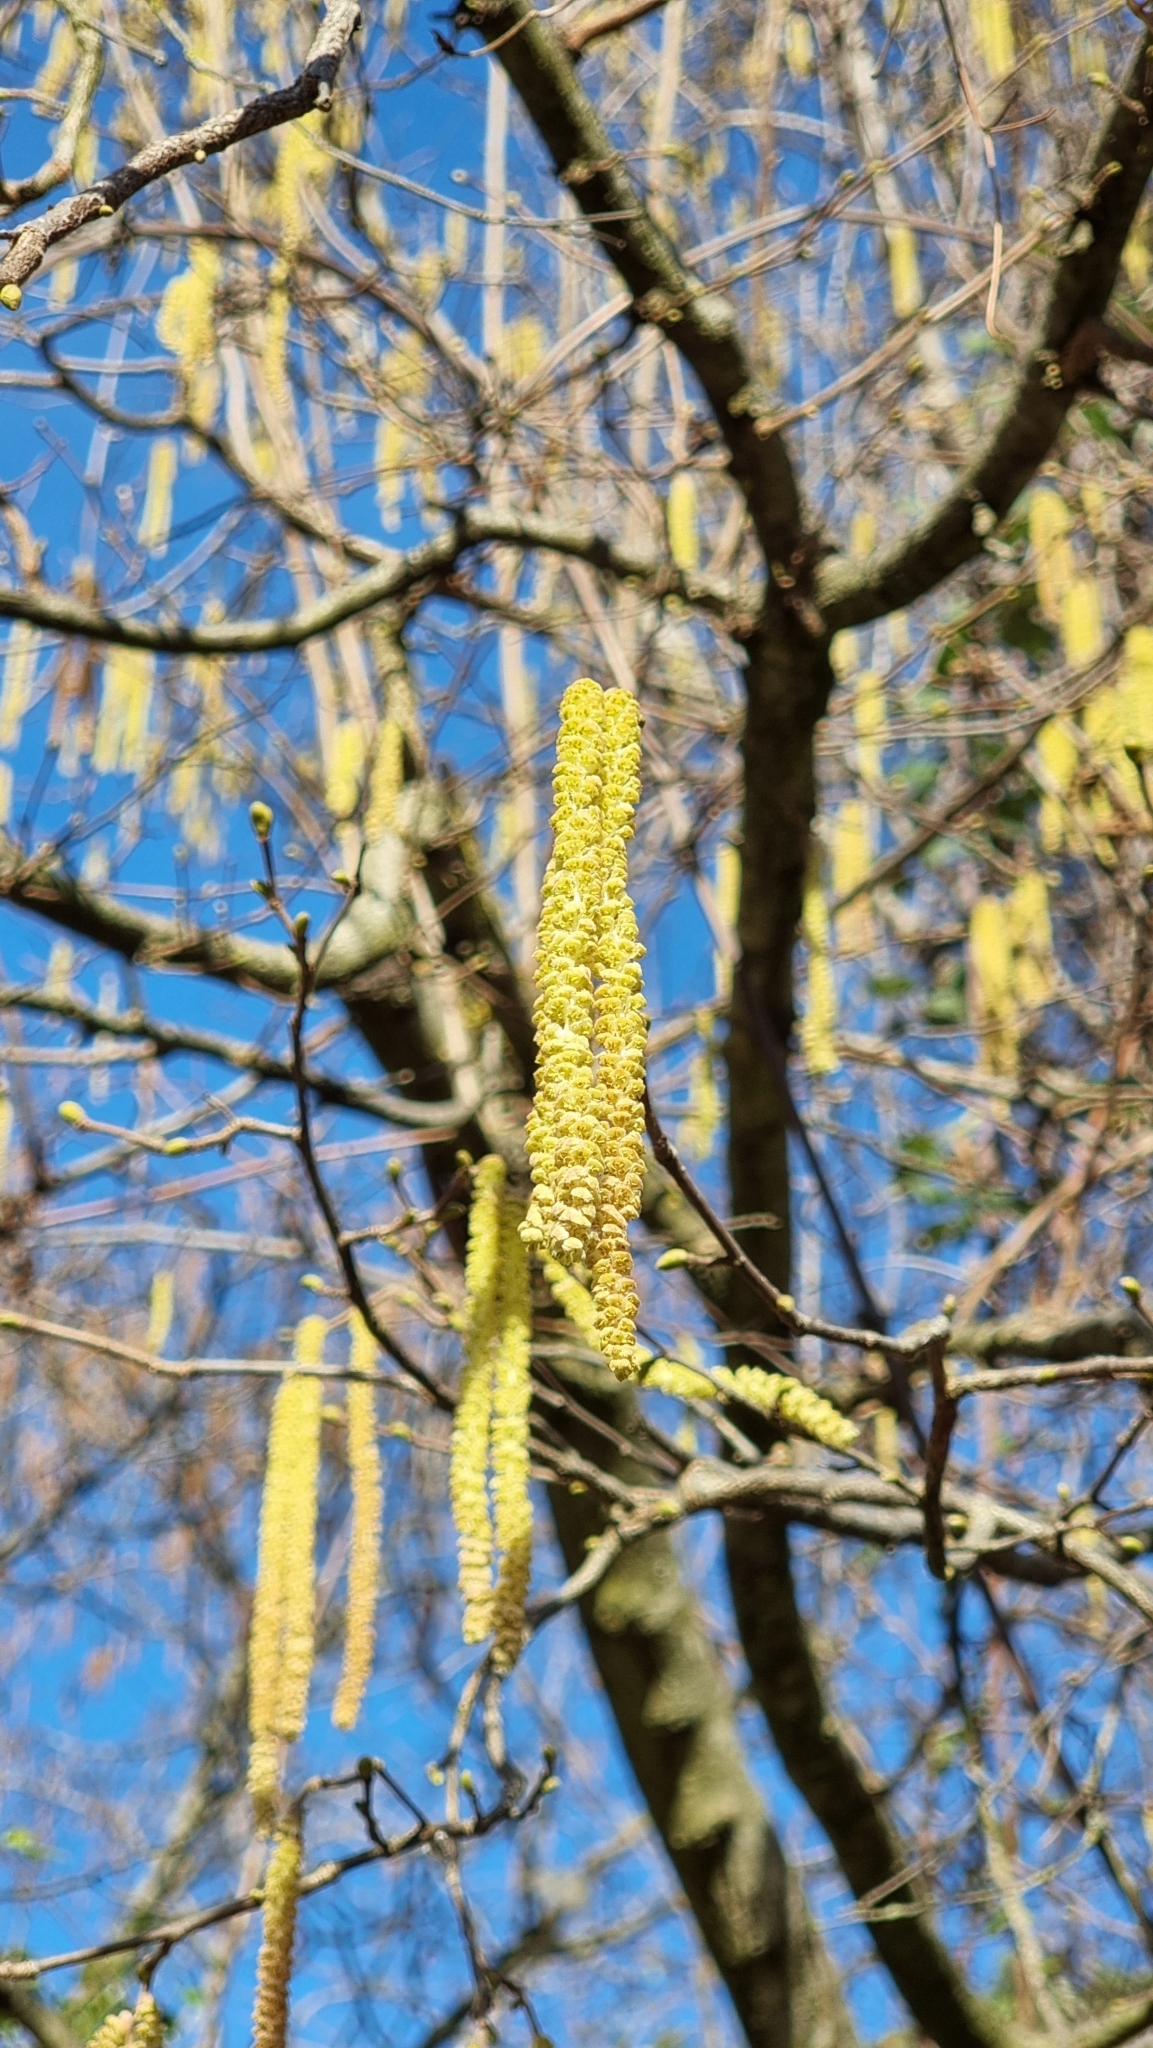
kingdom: Plantae
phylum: Tracheophyta
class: Magnoliopsida
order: Fagales
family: Betulaceae
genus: Corylus
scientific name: Corylus avellana
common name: European hazel
